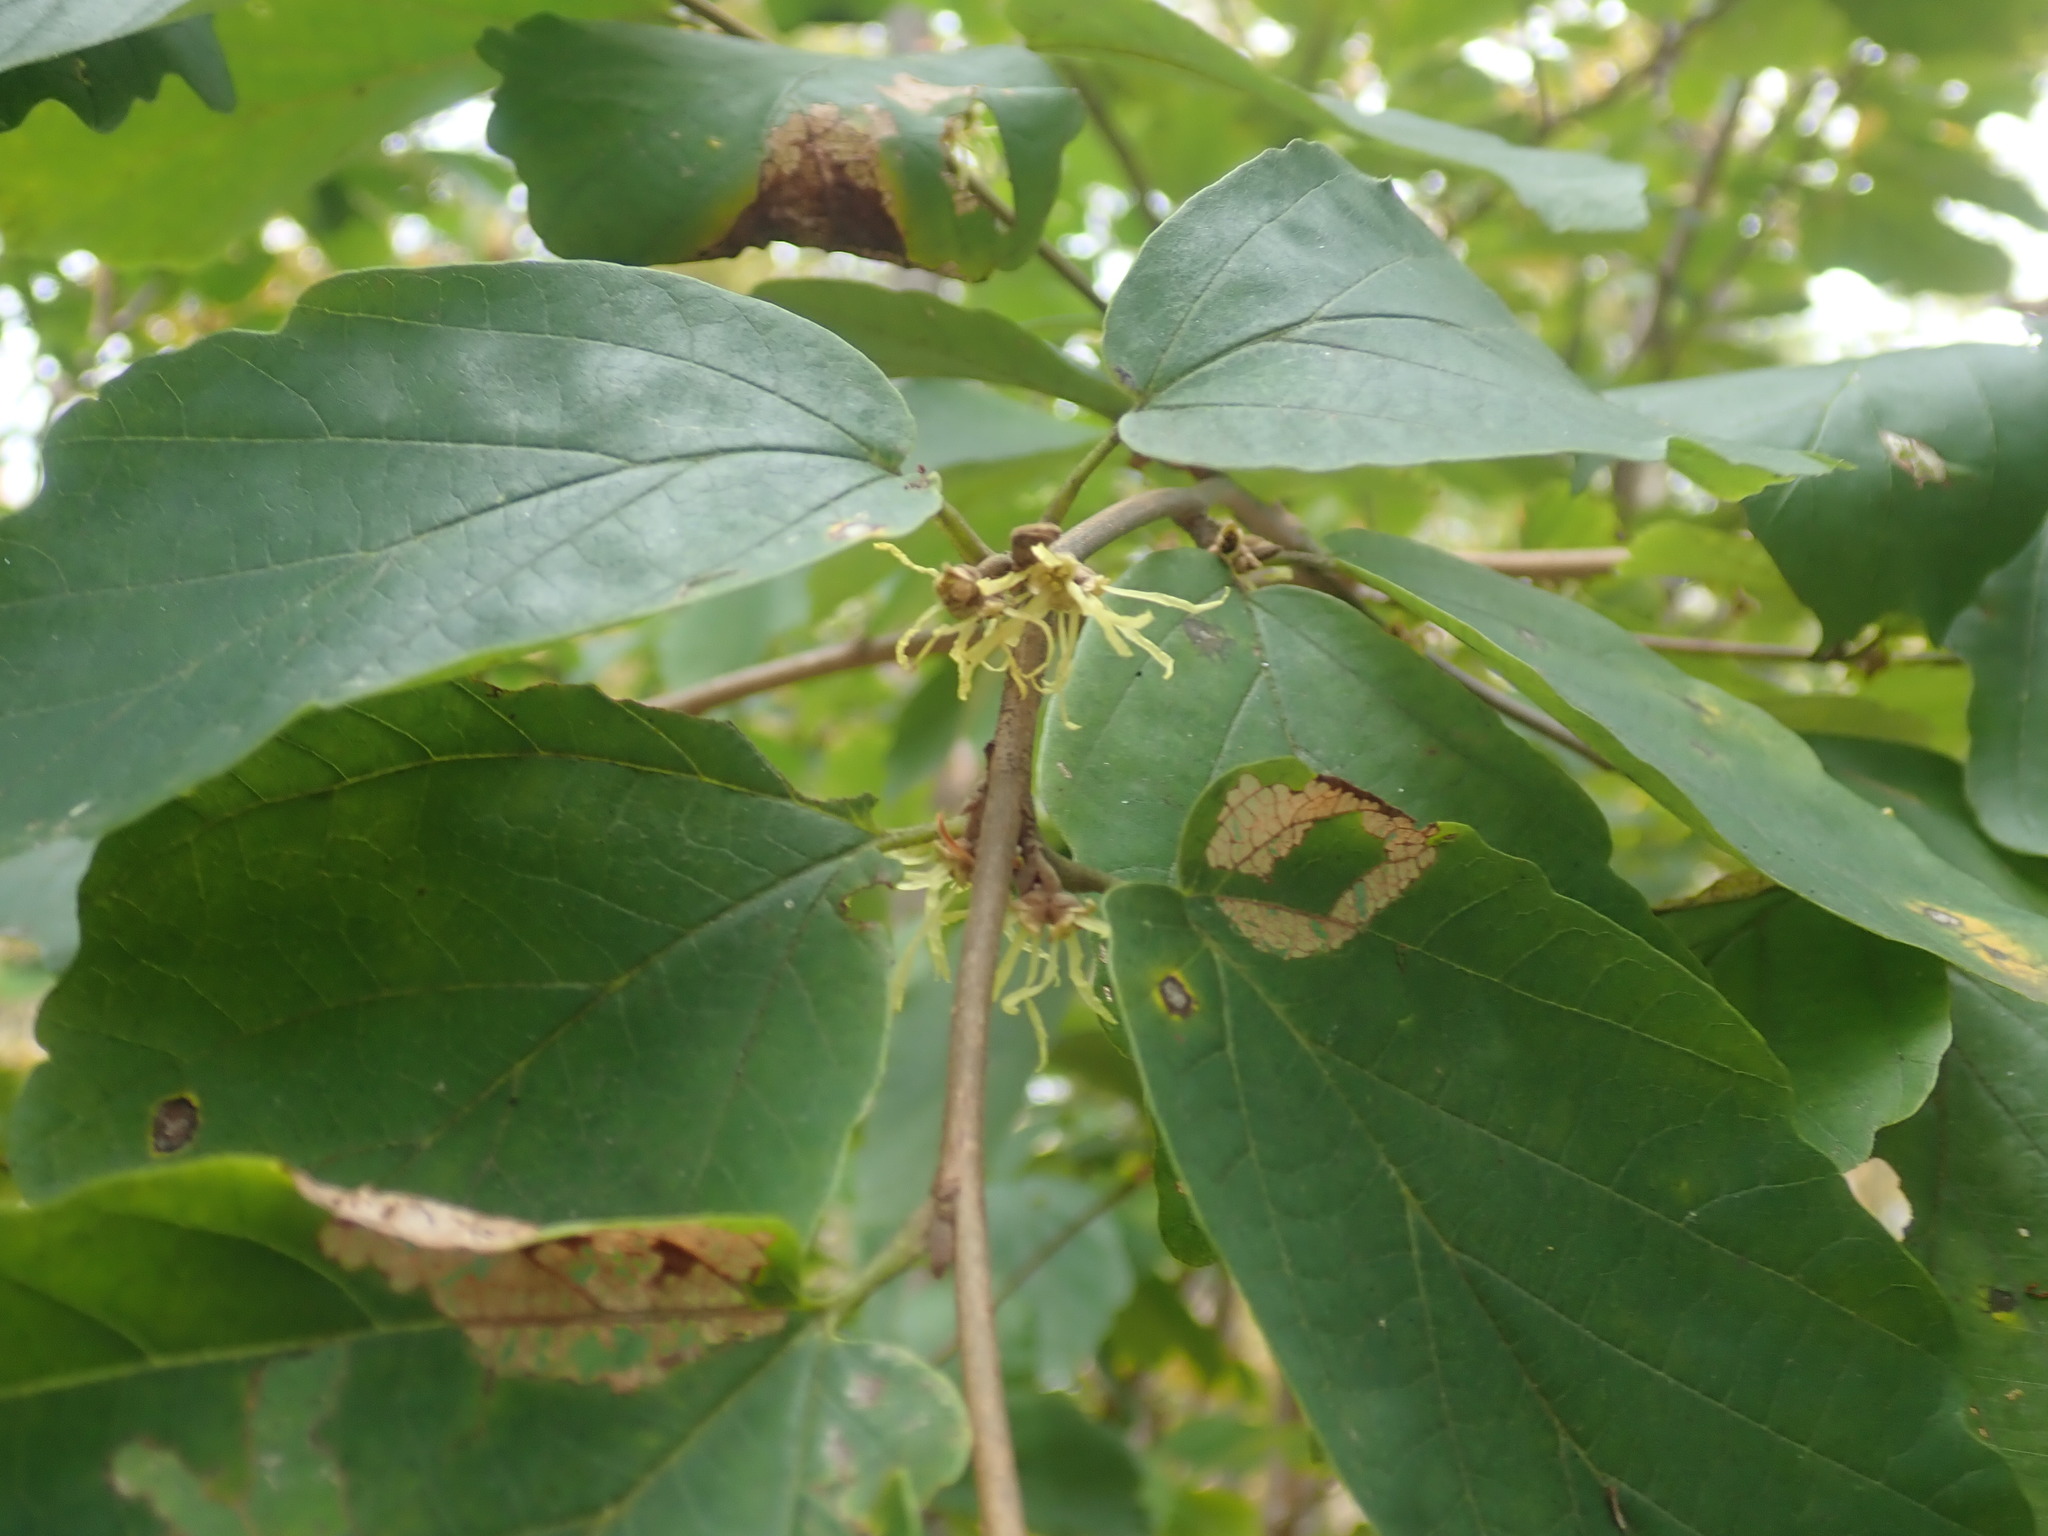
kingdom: Plantae
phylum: Tracheophyta
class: Magnoliopsida
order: Saxifragales
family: Hamamelidaceae
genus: Hamamelis
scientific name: Hamamelis virginiana
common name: Witch-hazel
